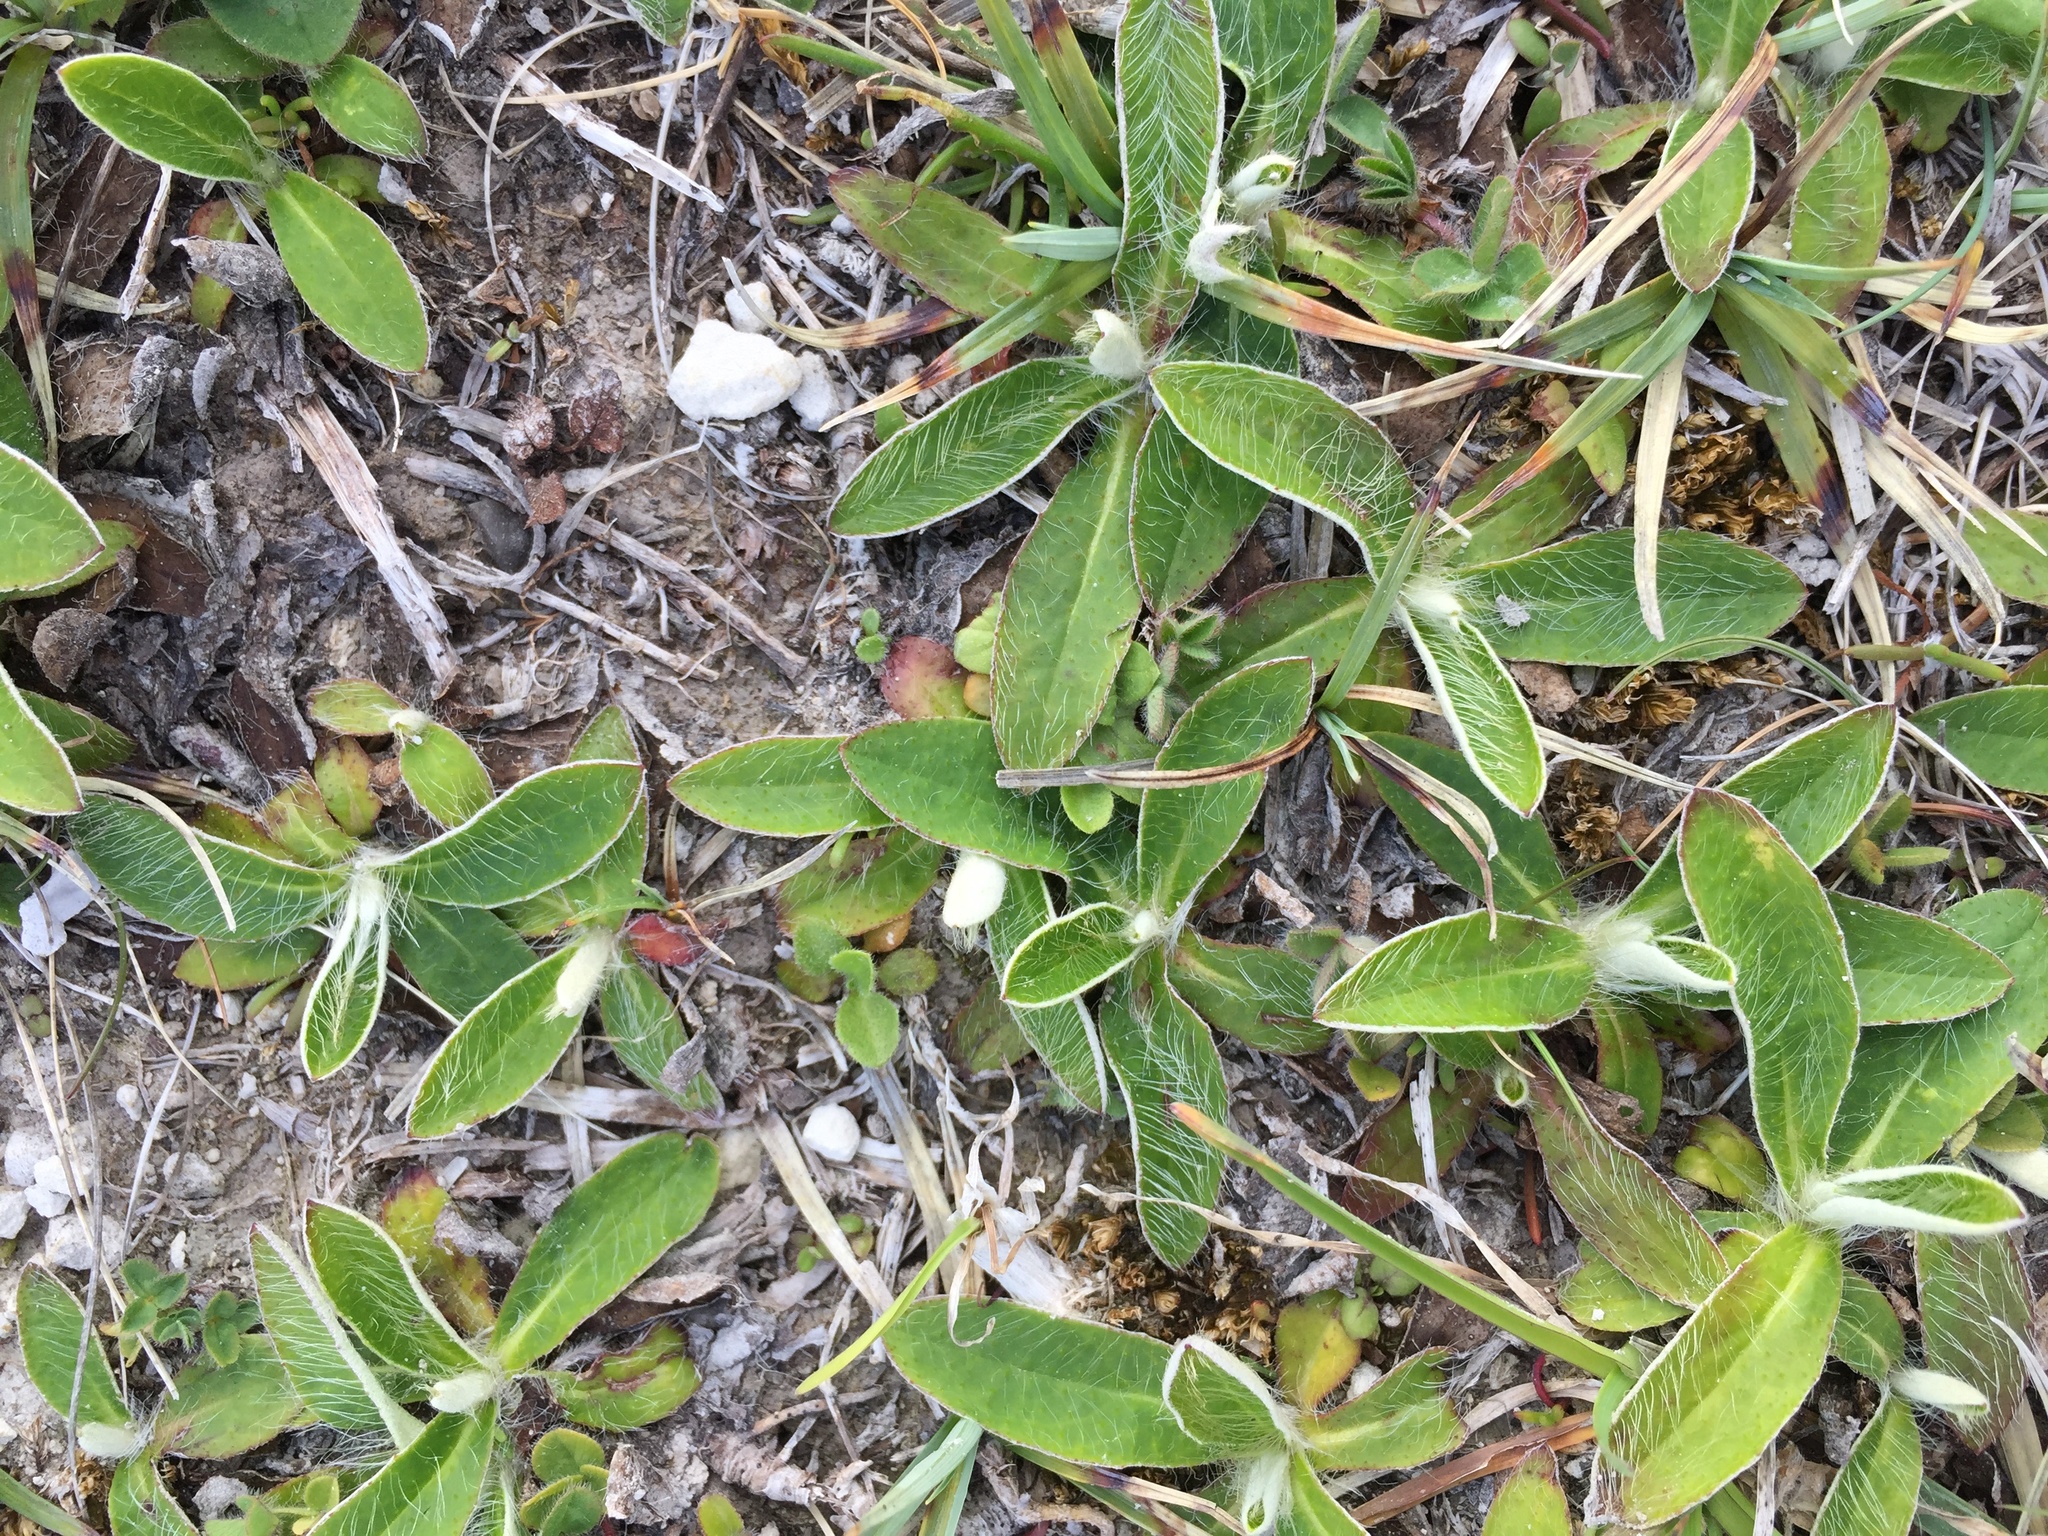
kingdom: Plantae
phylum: Tracheophyta
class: Magnoliopsida
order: Asterales
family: Asteraceae
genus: Pilosella
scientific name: Pilosella officinarum
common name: Mouse-ear hawkweed
